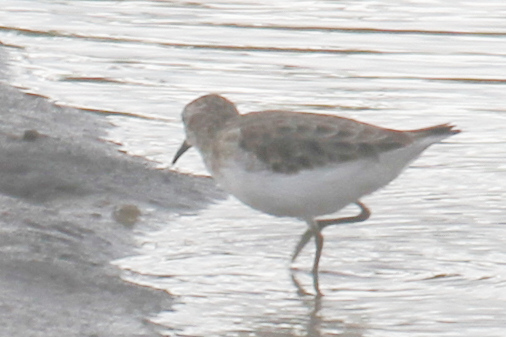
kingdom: Animalia
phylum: Chordata
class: Aves
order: Charadriiformes
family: Scolopacidae
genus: Calidris
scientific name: Calidris minutilla
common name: Least sandpiper
